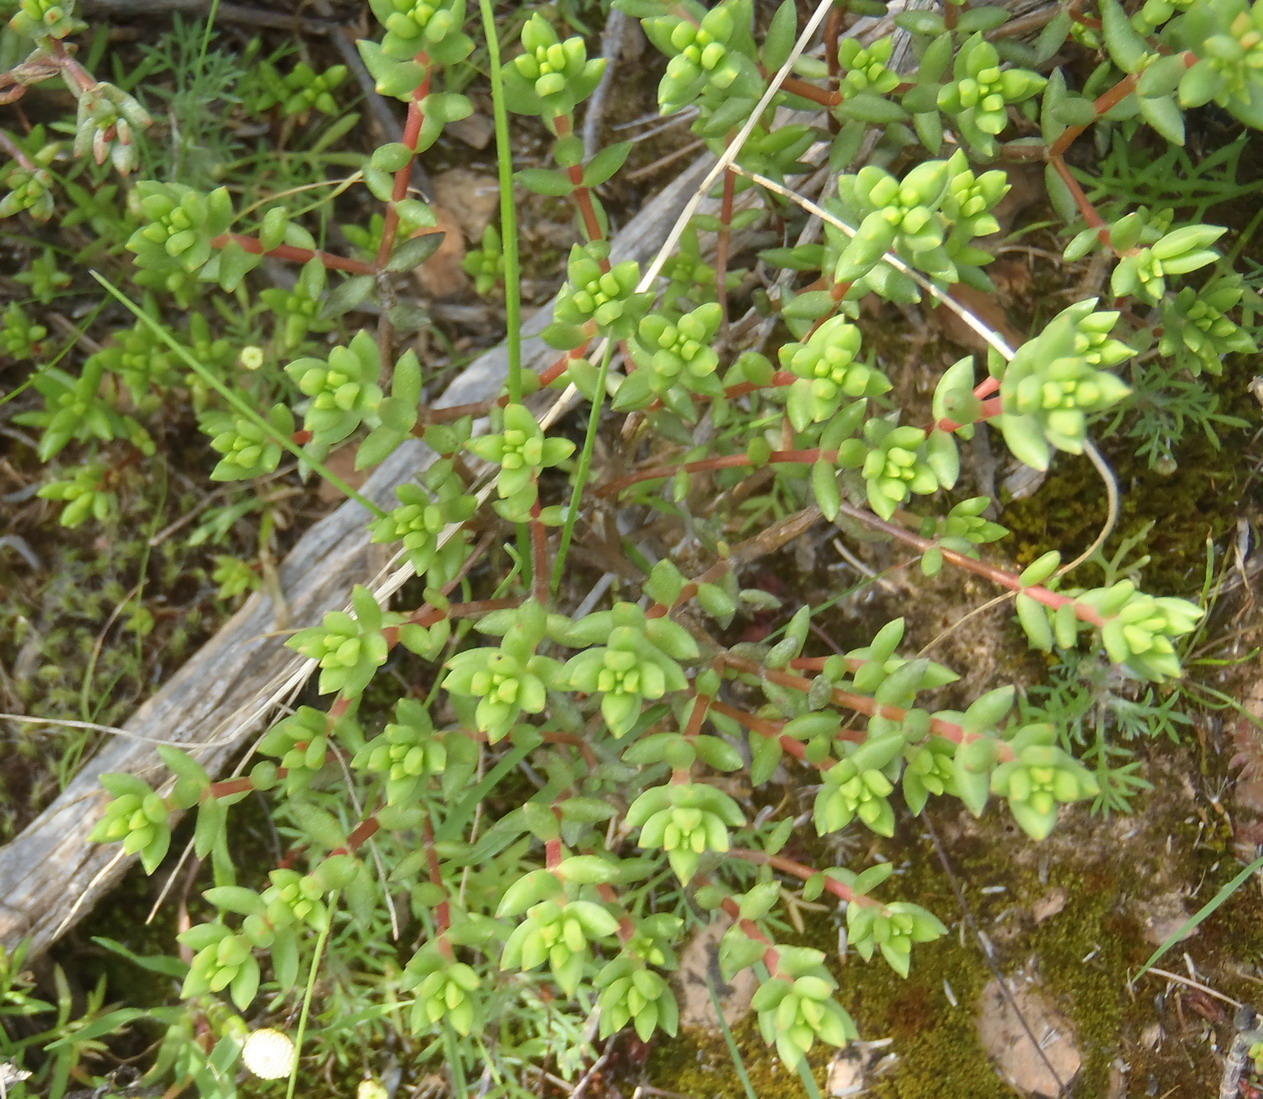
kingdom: Plantae
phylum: Tracheophyta
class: Magnoliopsida
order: Saxifragales
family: Crassulaceae
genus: Crassula
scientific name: Crassula biplanata
